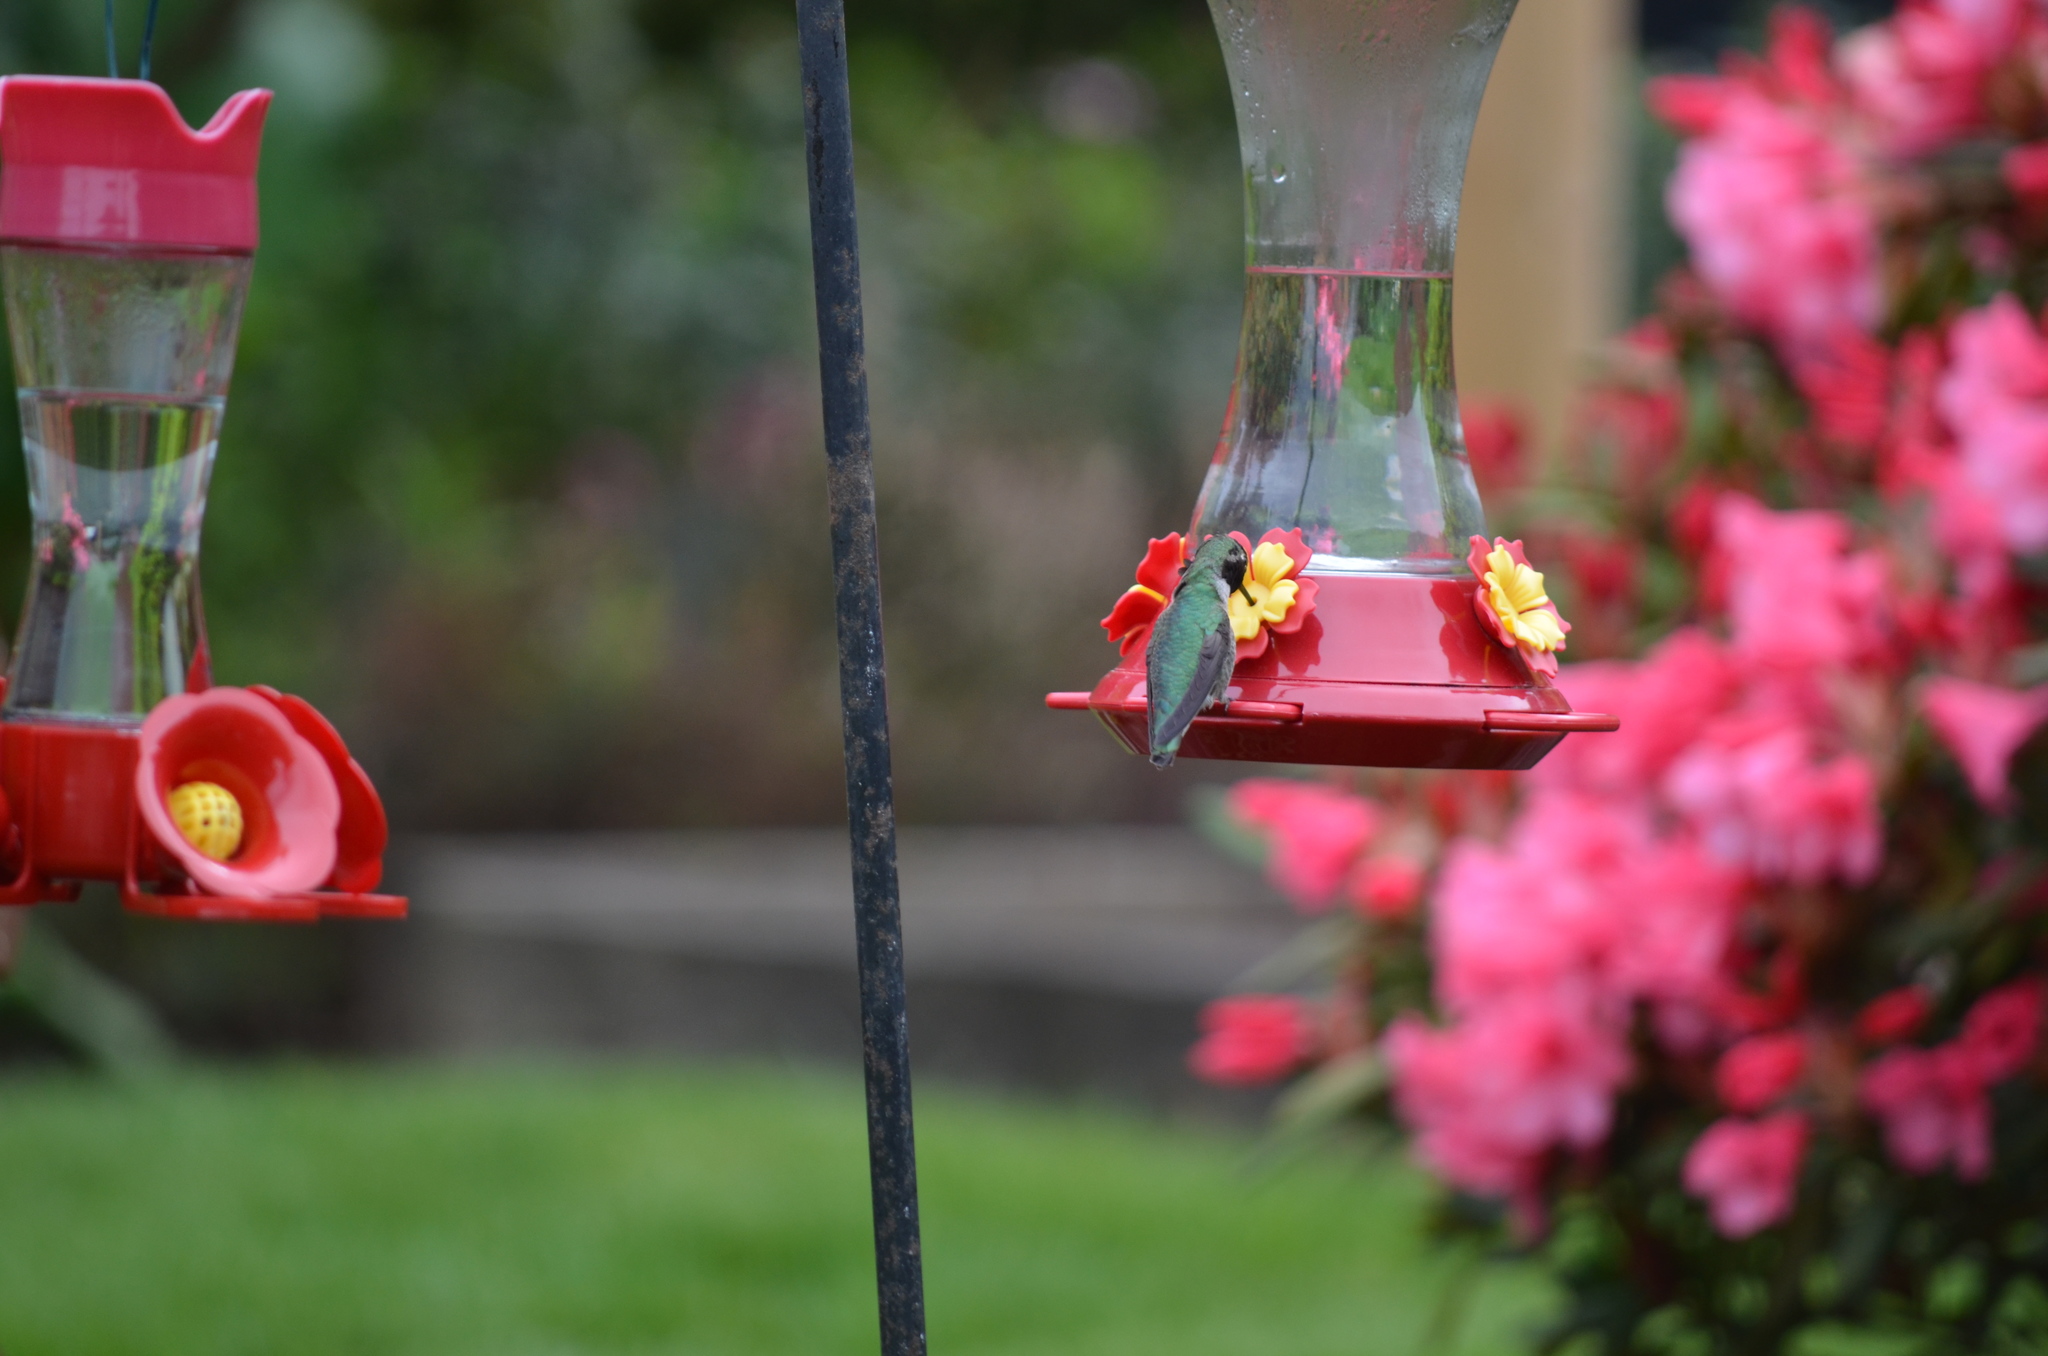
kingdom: Animalia
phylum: Chordata
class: Aves
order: Apodiformes
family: Trochilidae
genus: Calypte
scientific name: Calypte anna
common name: Anna's hummingbird
